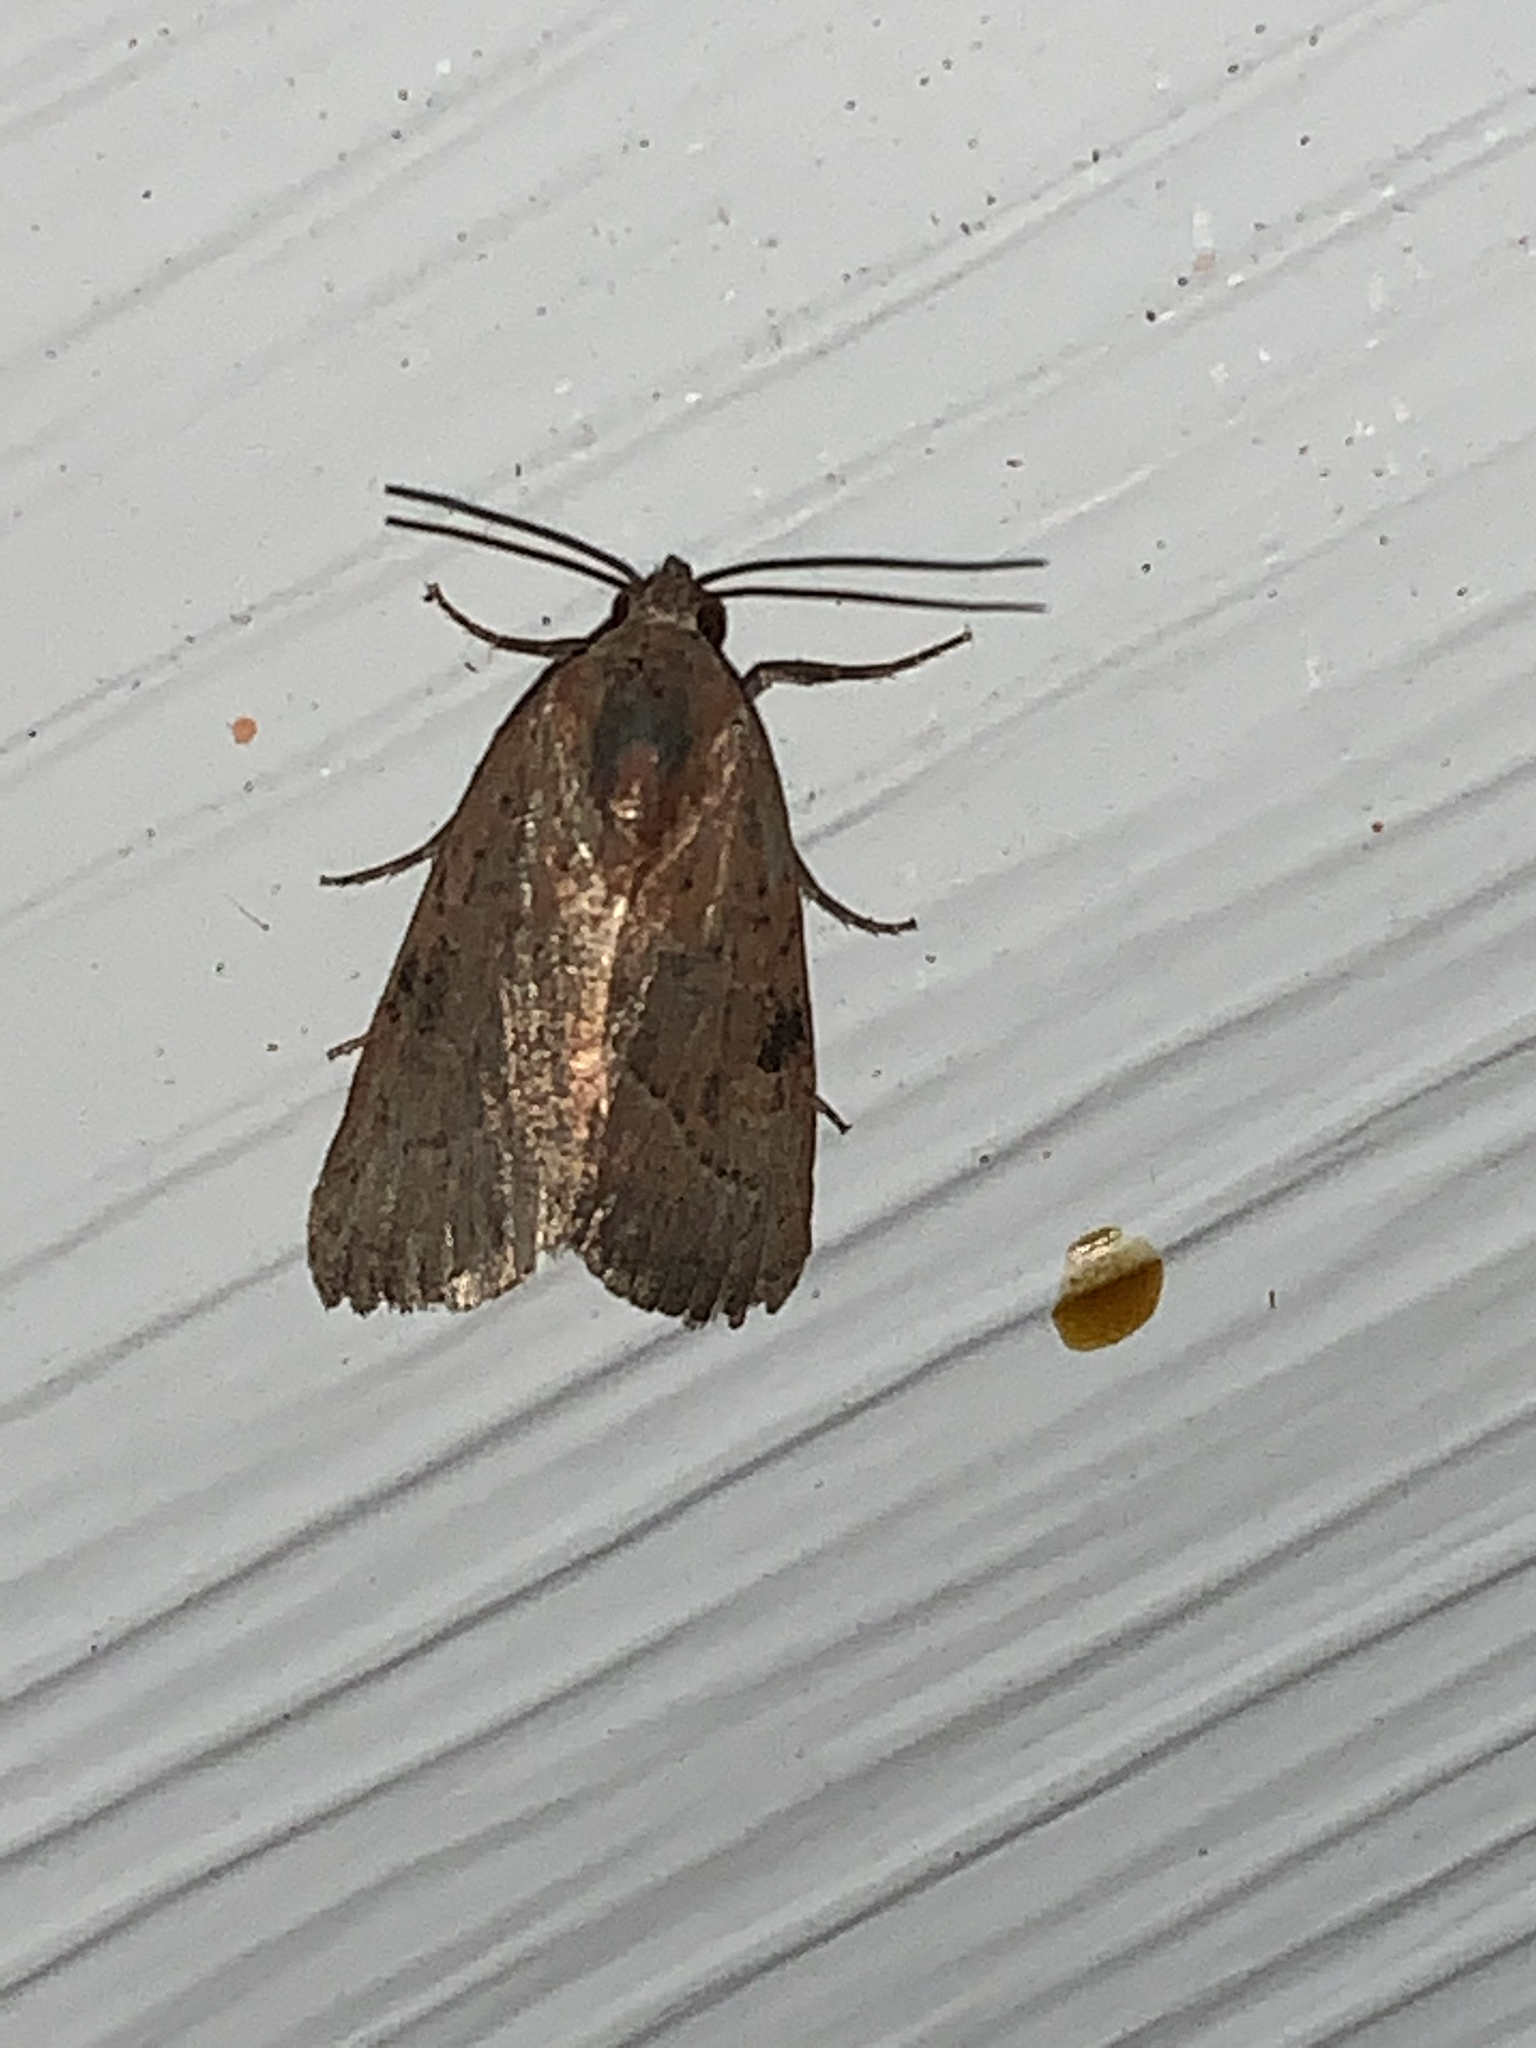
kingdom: Animalia
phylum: Arthropoda
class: Insecta
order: Lepidoptera
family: Noctuidae
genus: Galgula
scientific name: Galgula partita
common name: Wedgeling
